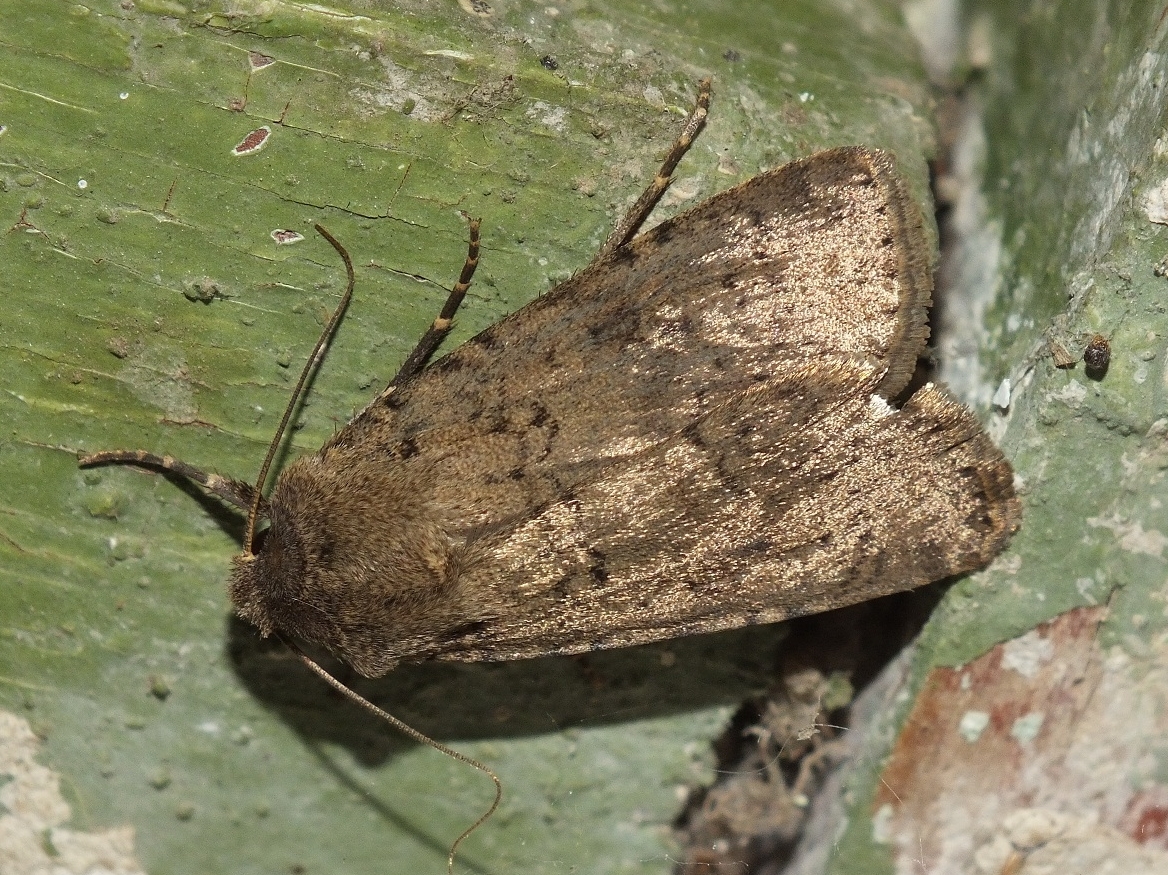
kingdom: Animalia
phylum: Arthropoda
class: Insecta
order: Lepidoptera
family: Noctuidae
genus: Rhyacia
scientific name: Rhyacia simulans
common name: Dotted rustic
